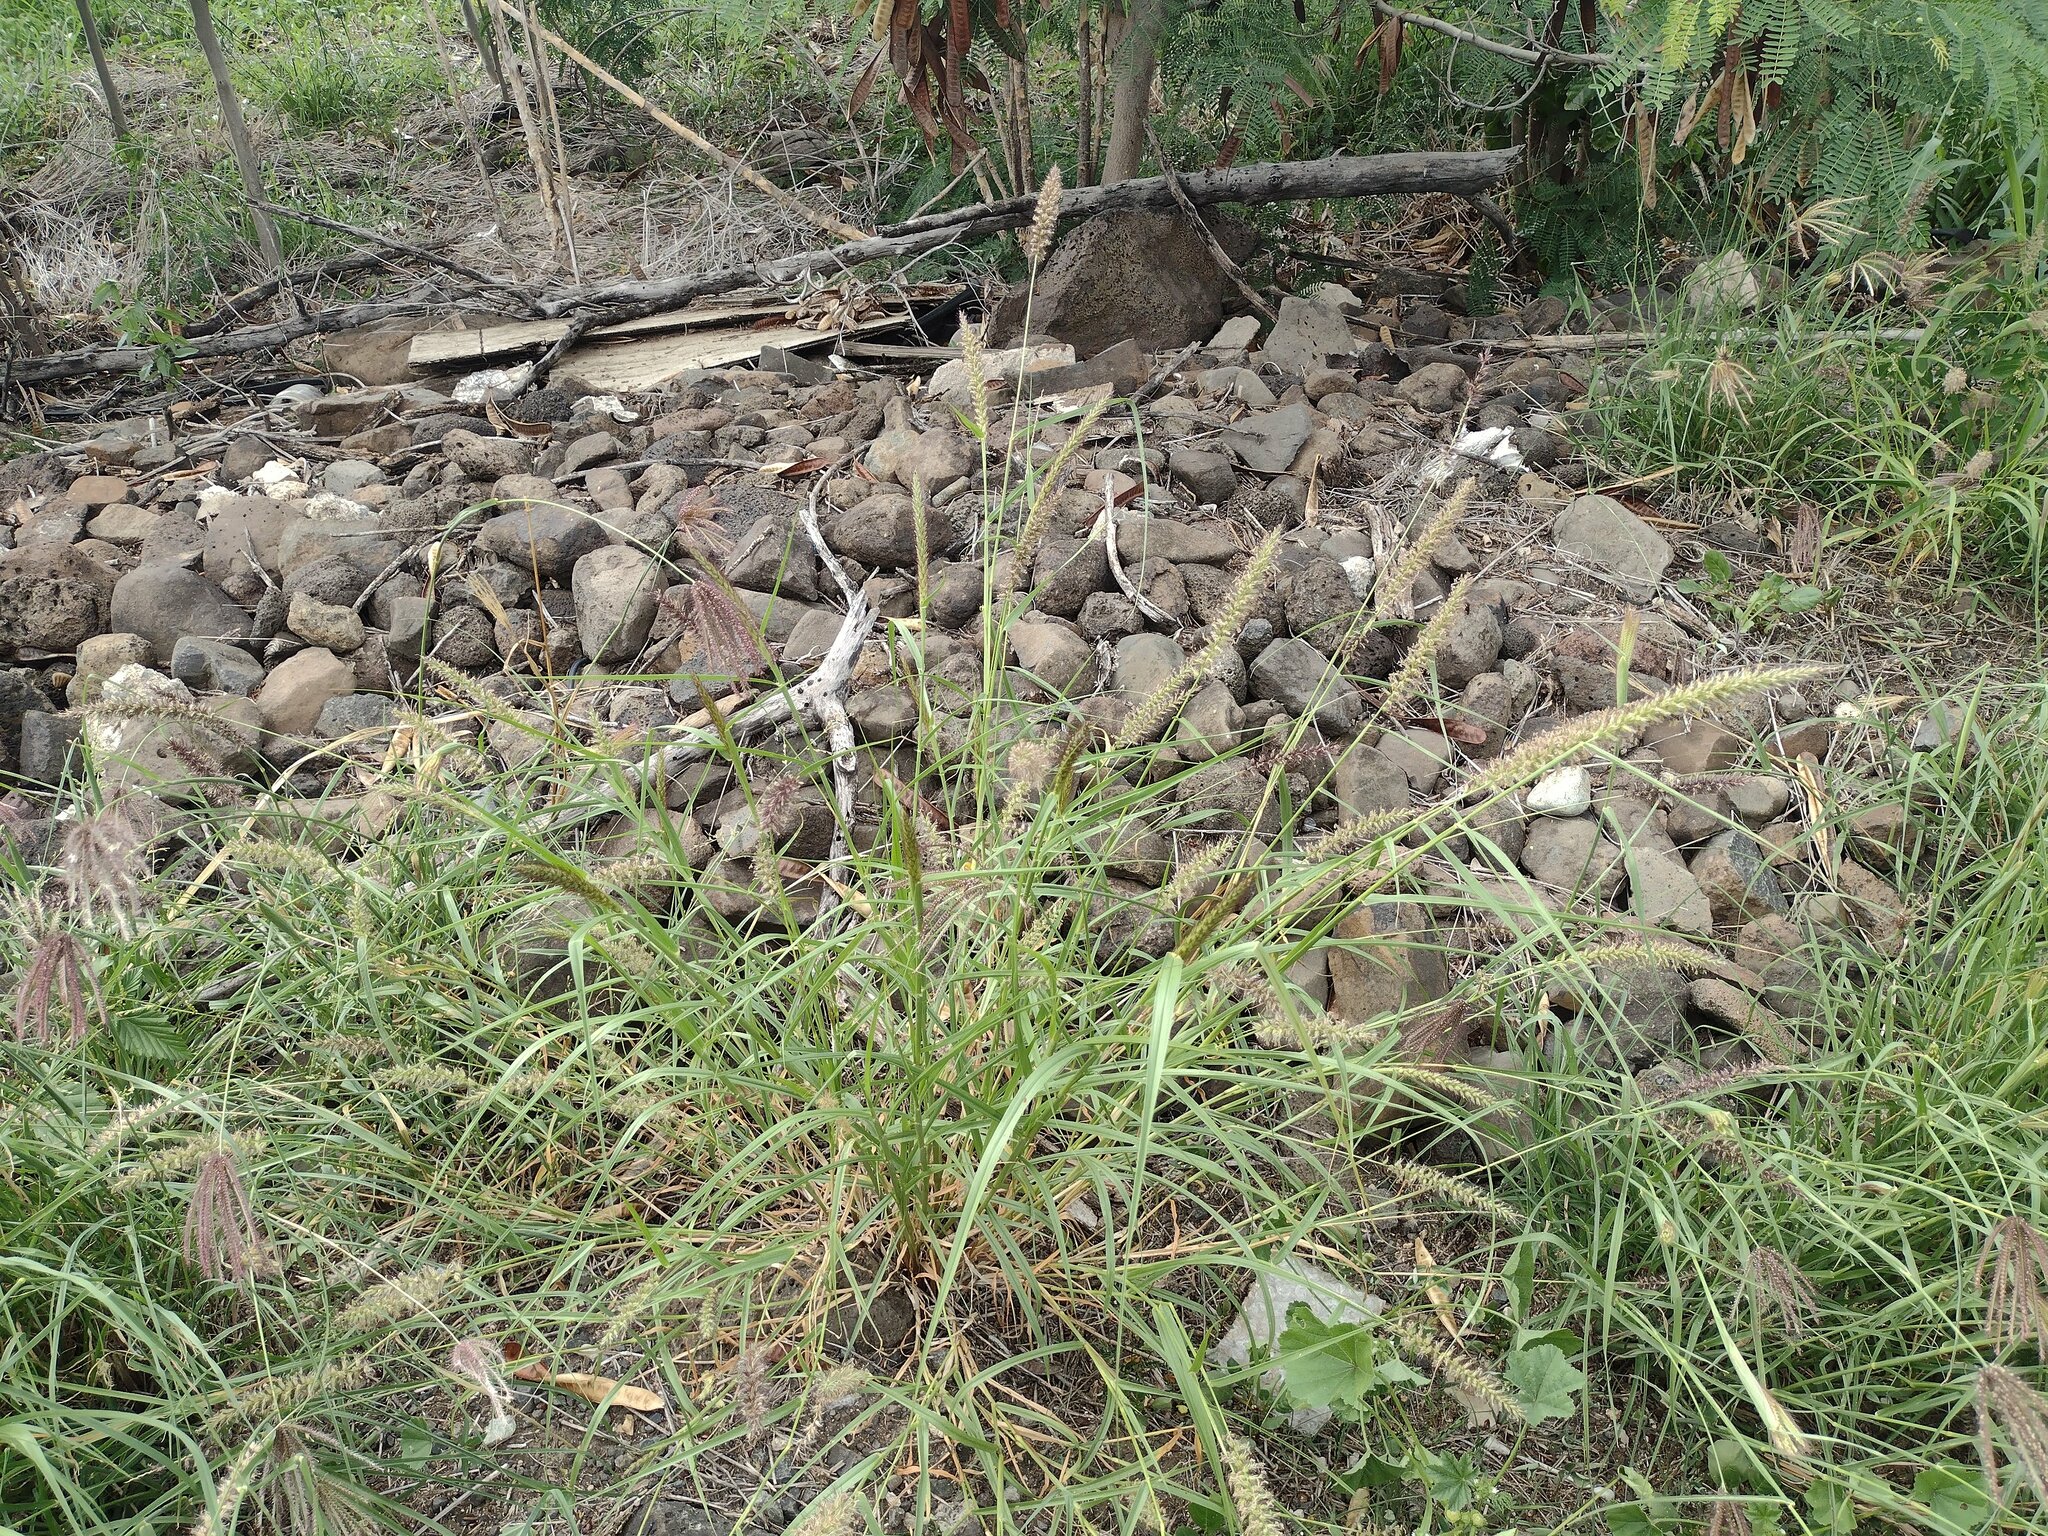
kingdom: Plantae
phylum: Tracheophyta
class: Liliopsida
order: Poales
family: Poaceae
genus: Cenchrus
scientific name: Cenchrus ciliaris
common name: Buffelgrass
